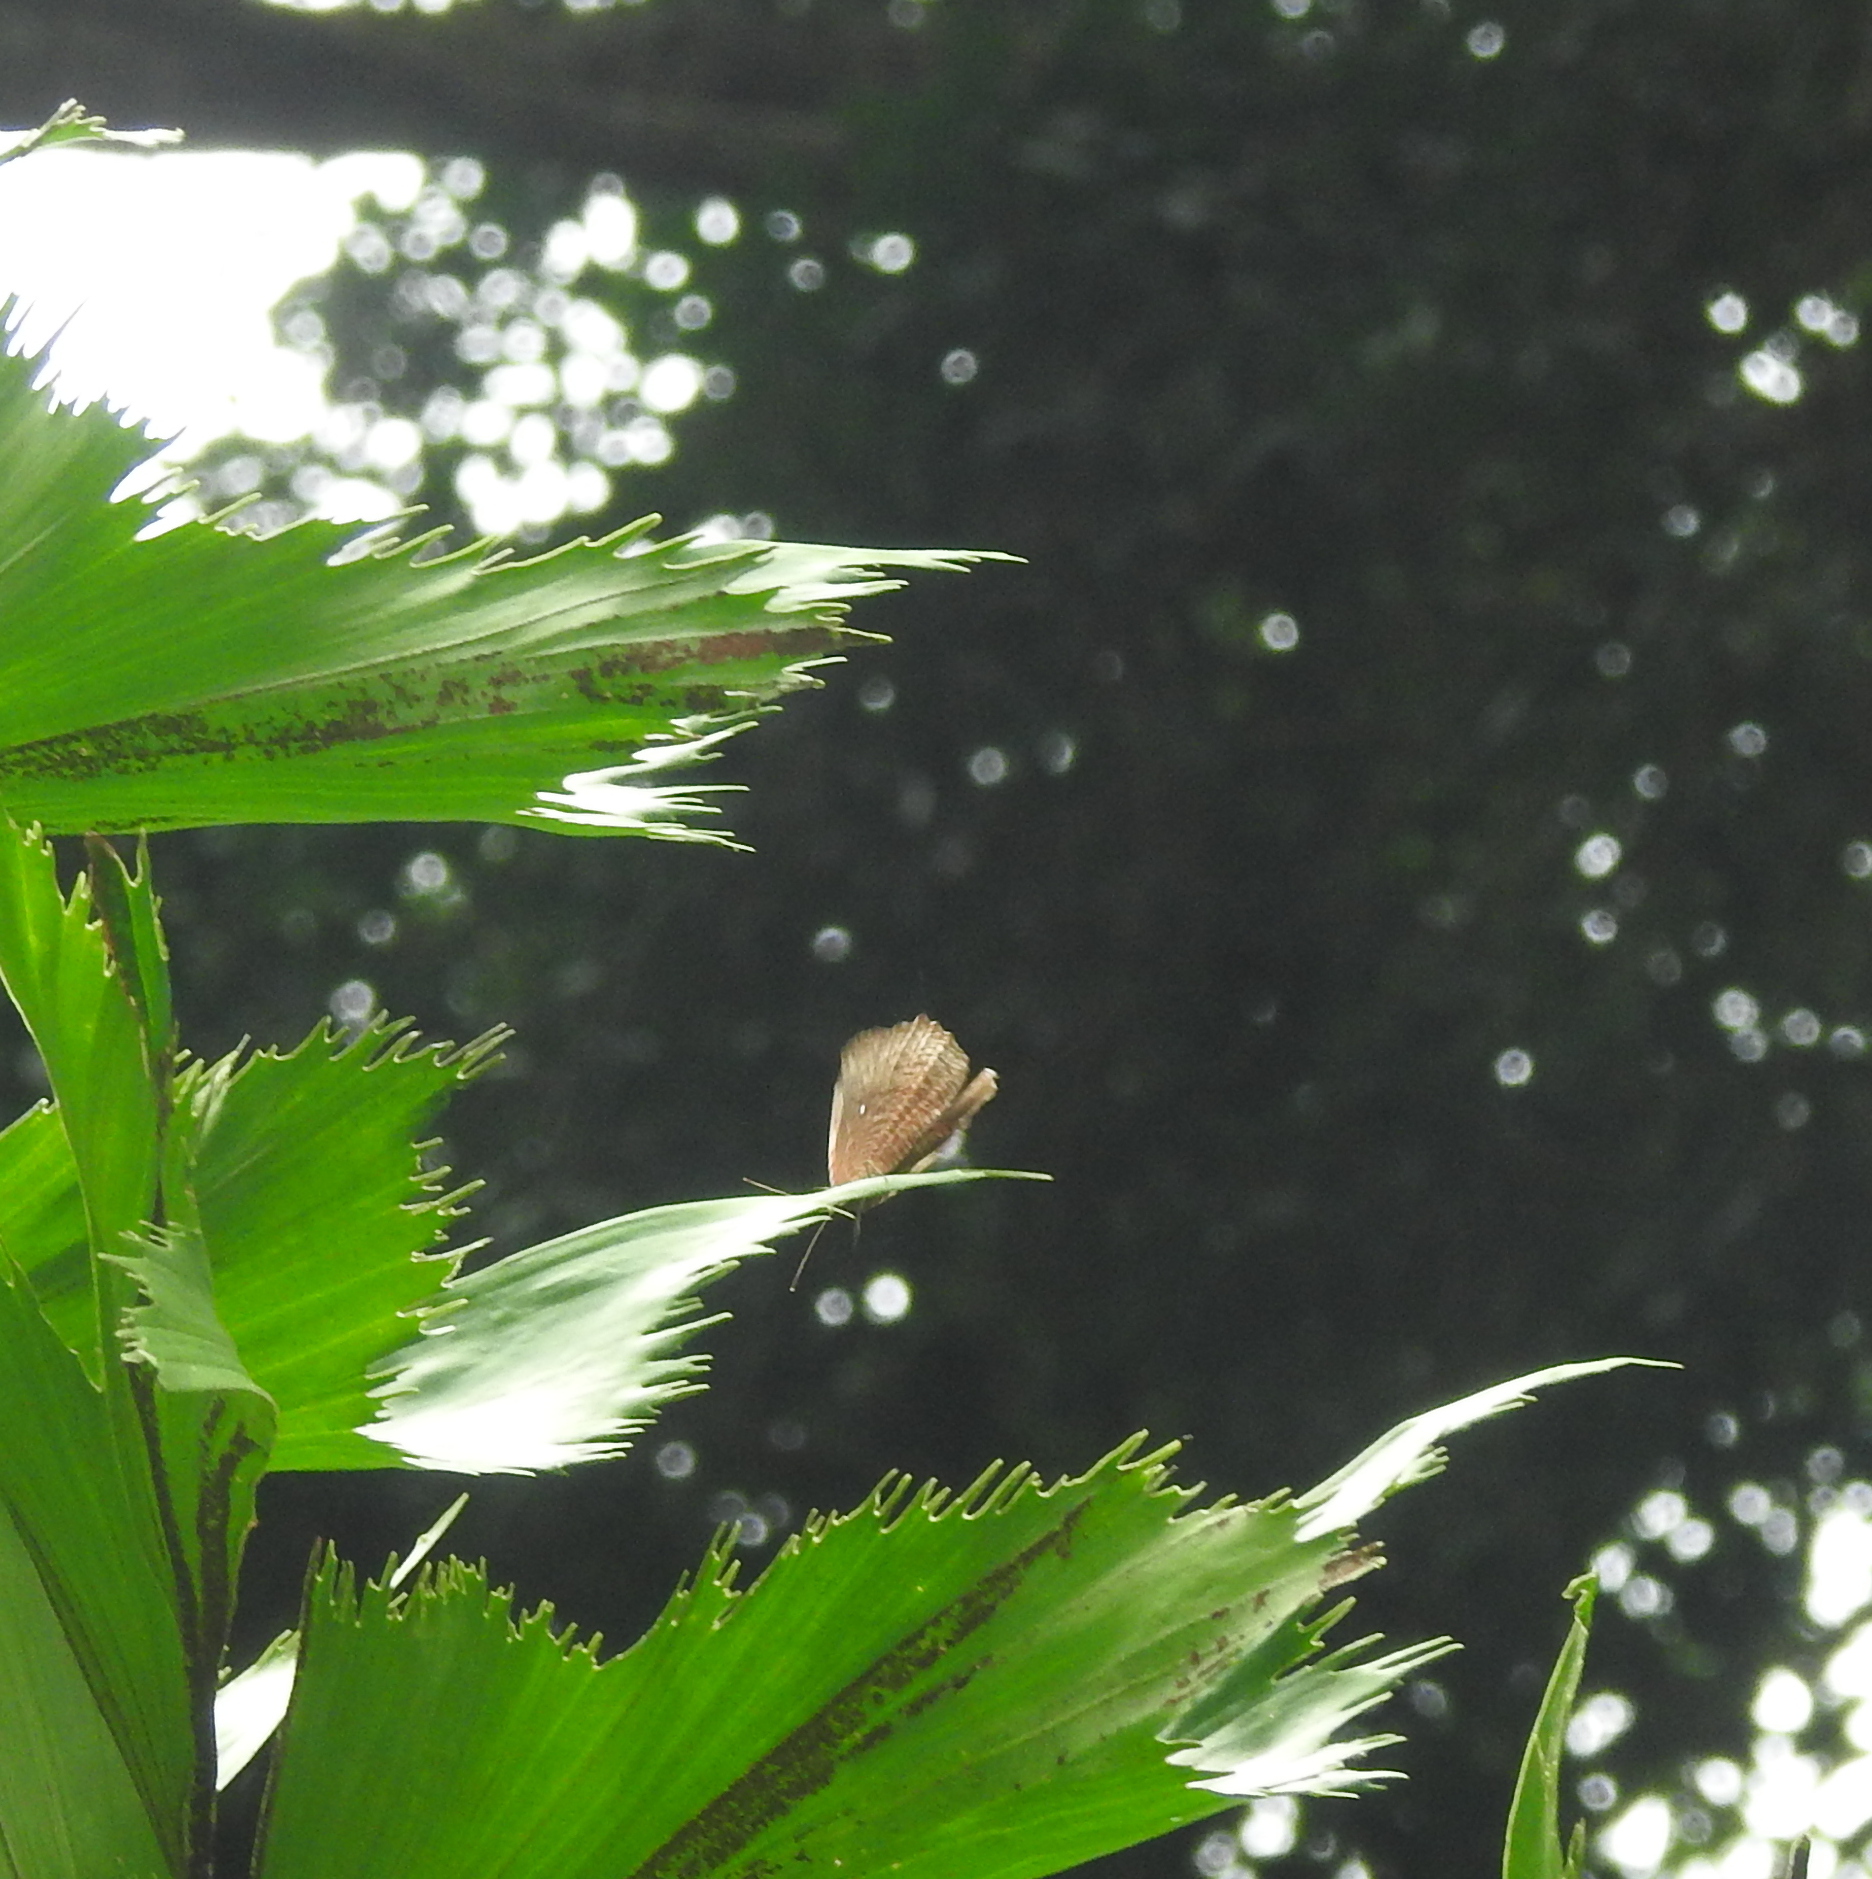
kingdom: Animalia
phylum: Arthropoda
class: Insecta
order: Lepidoptera
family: Nymphalidae
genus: Elymnias
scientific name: Elymnias hypermnestra
